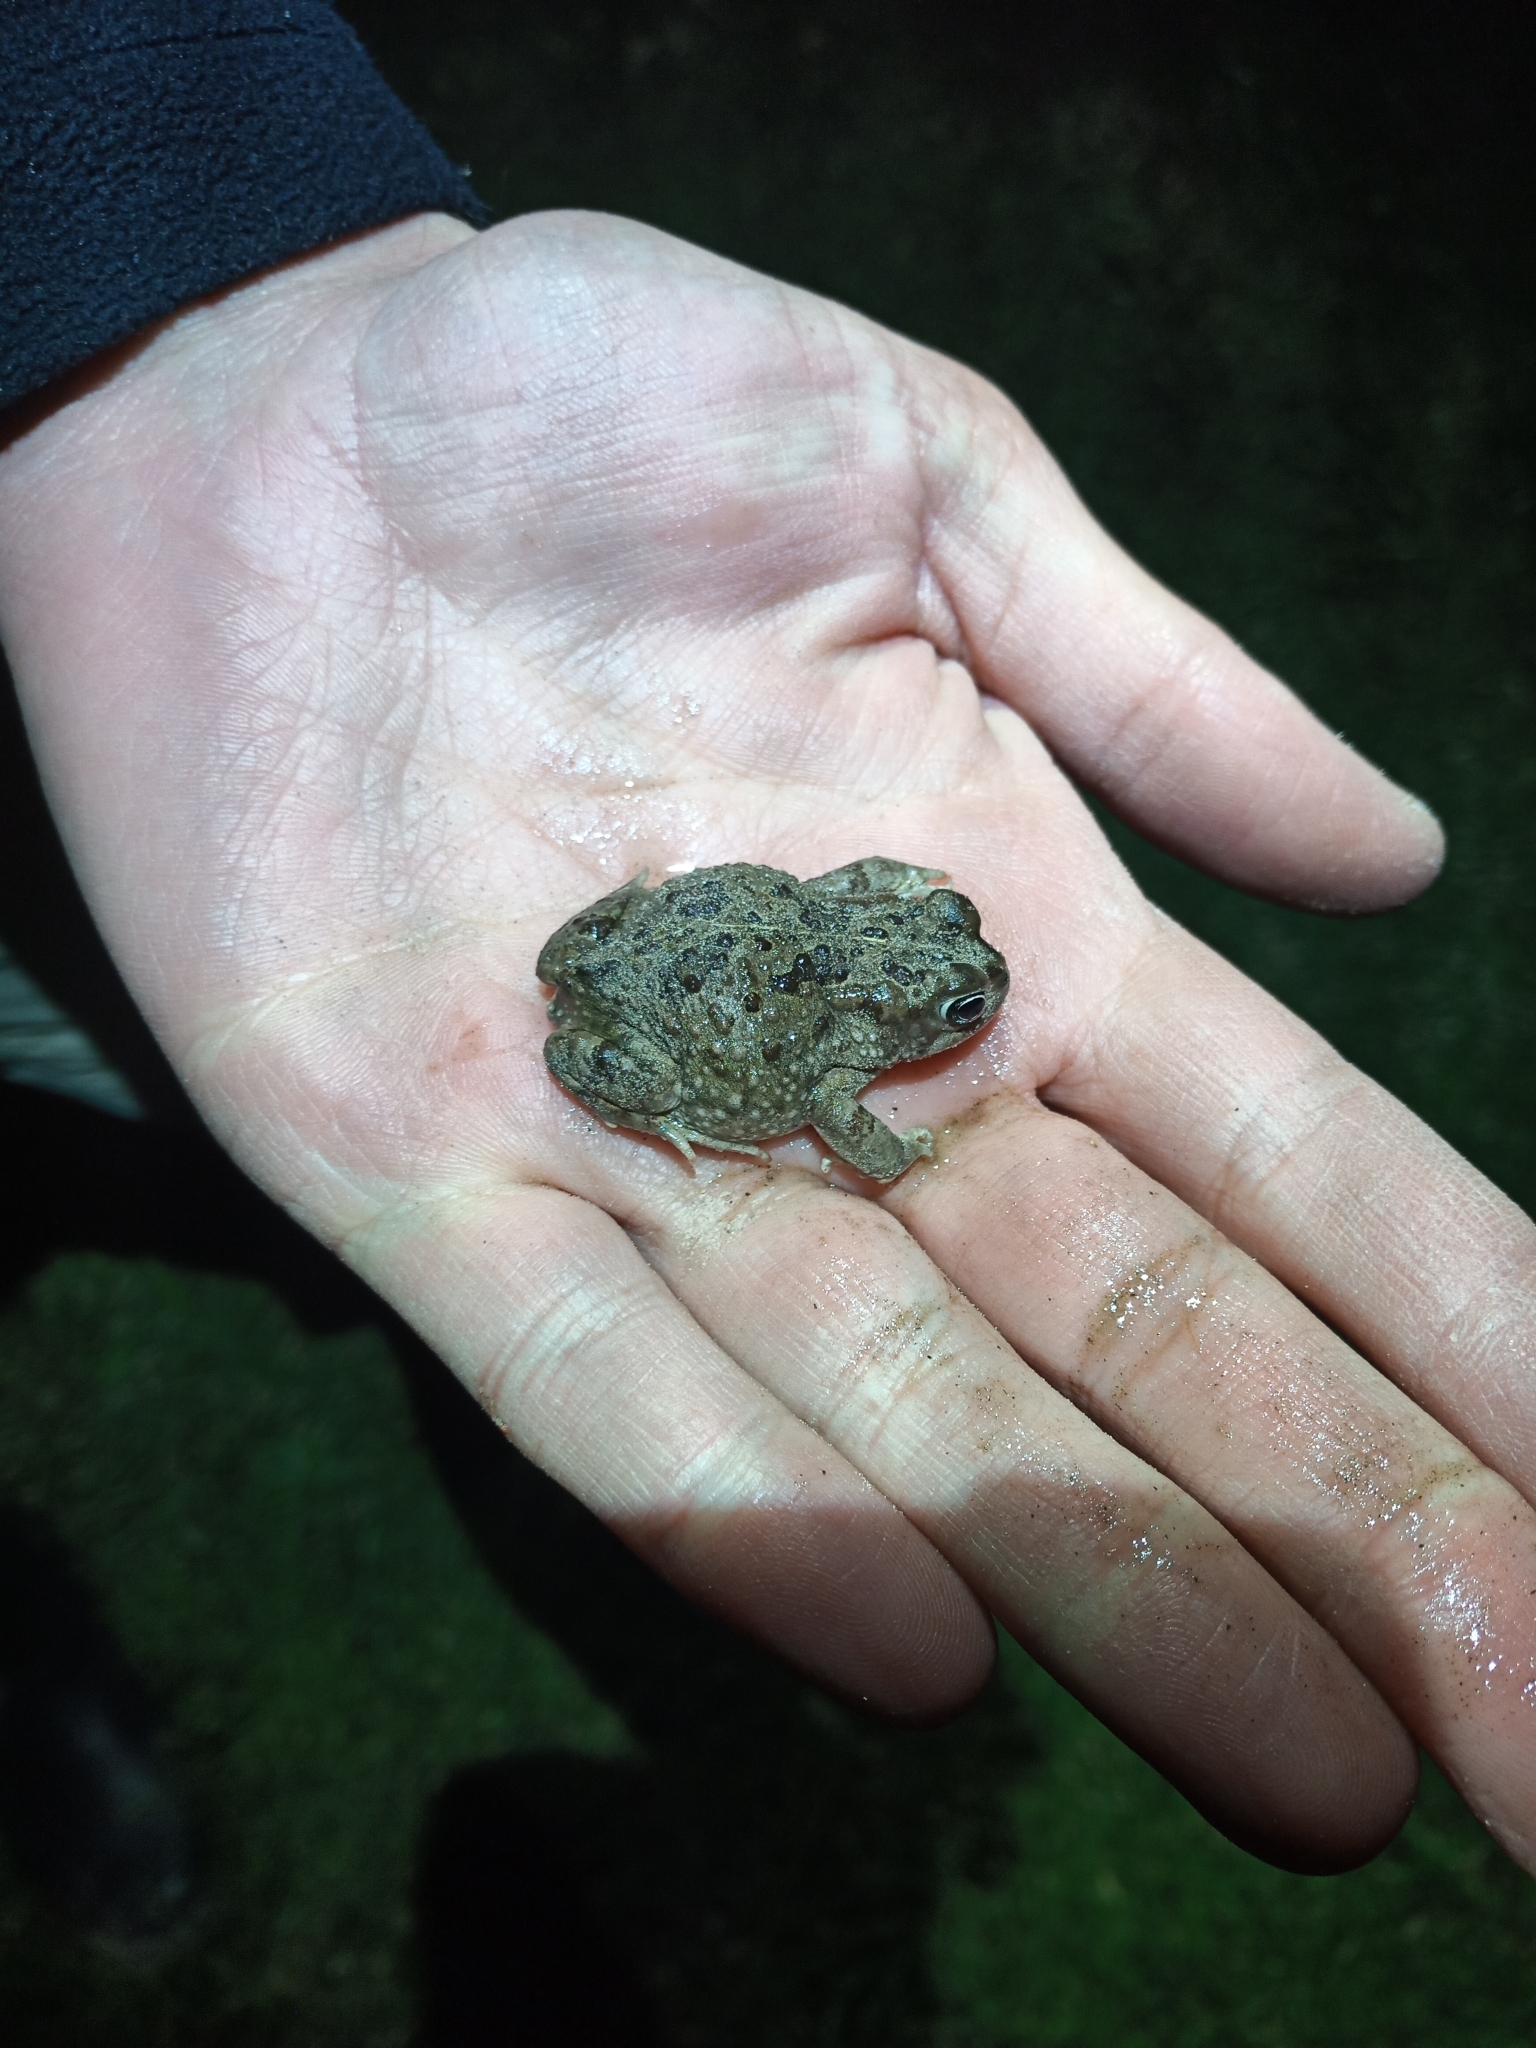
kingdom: Animalia
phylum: Chordata
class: Amphibia
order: Anura
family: Bufonidae
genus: Vandijkophrynus
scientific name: Vandijkophrynus angusticeps
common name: Sand toad
